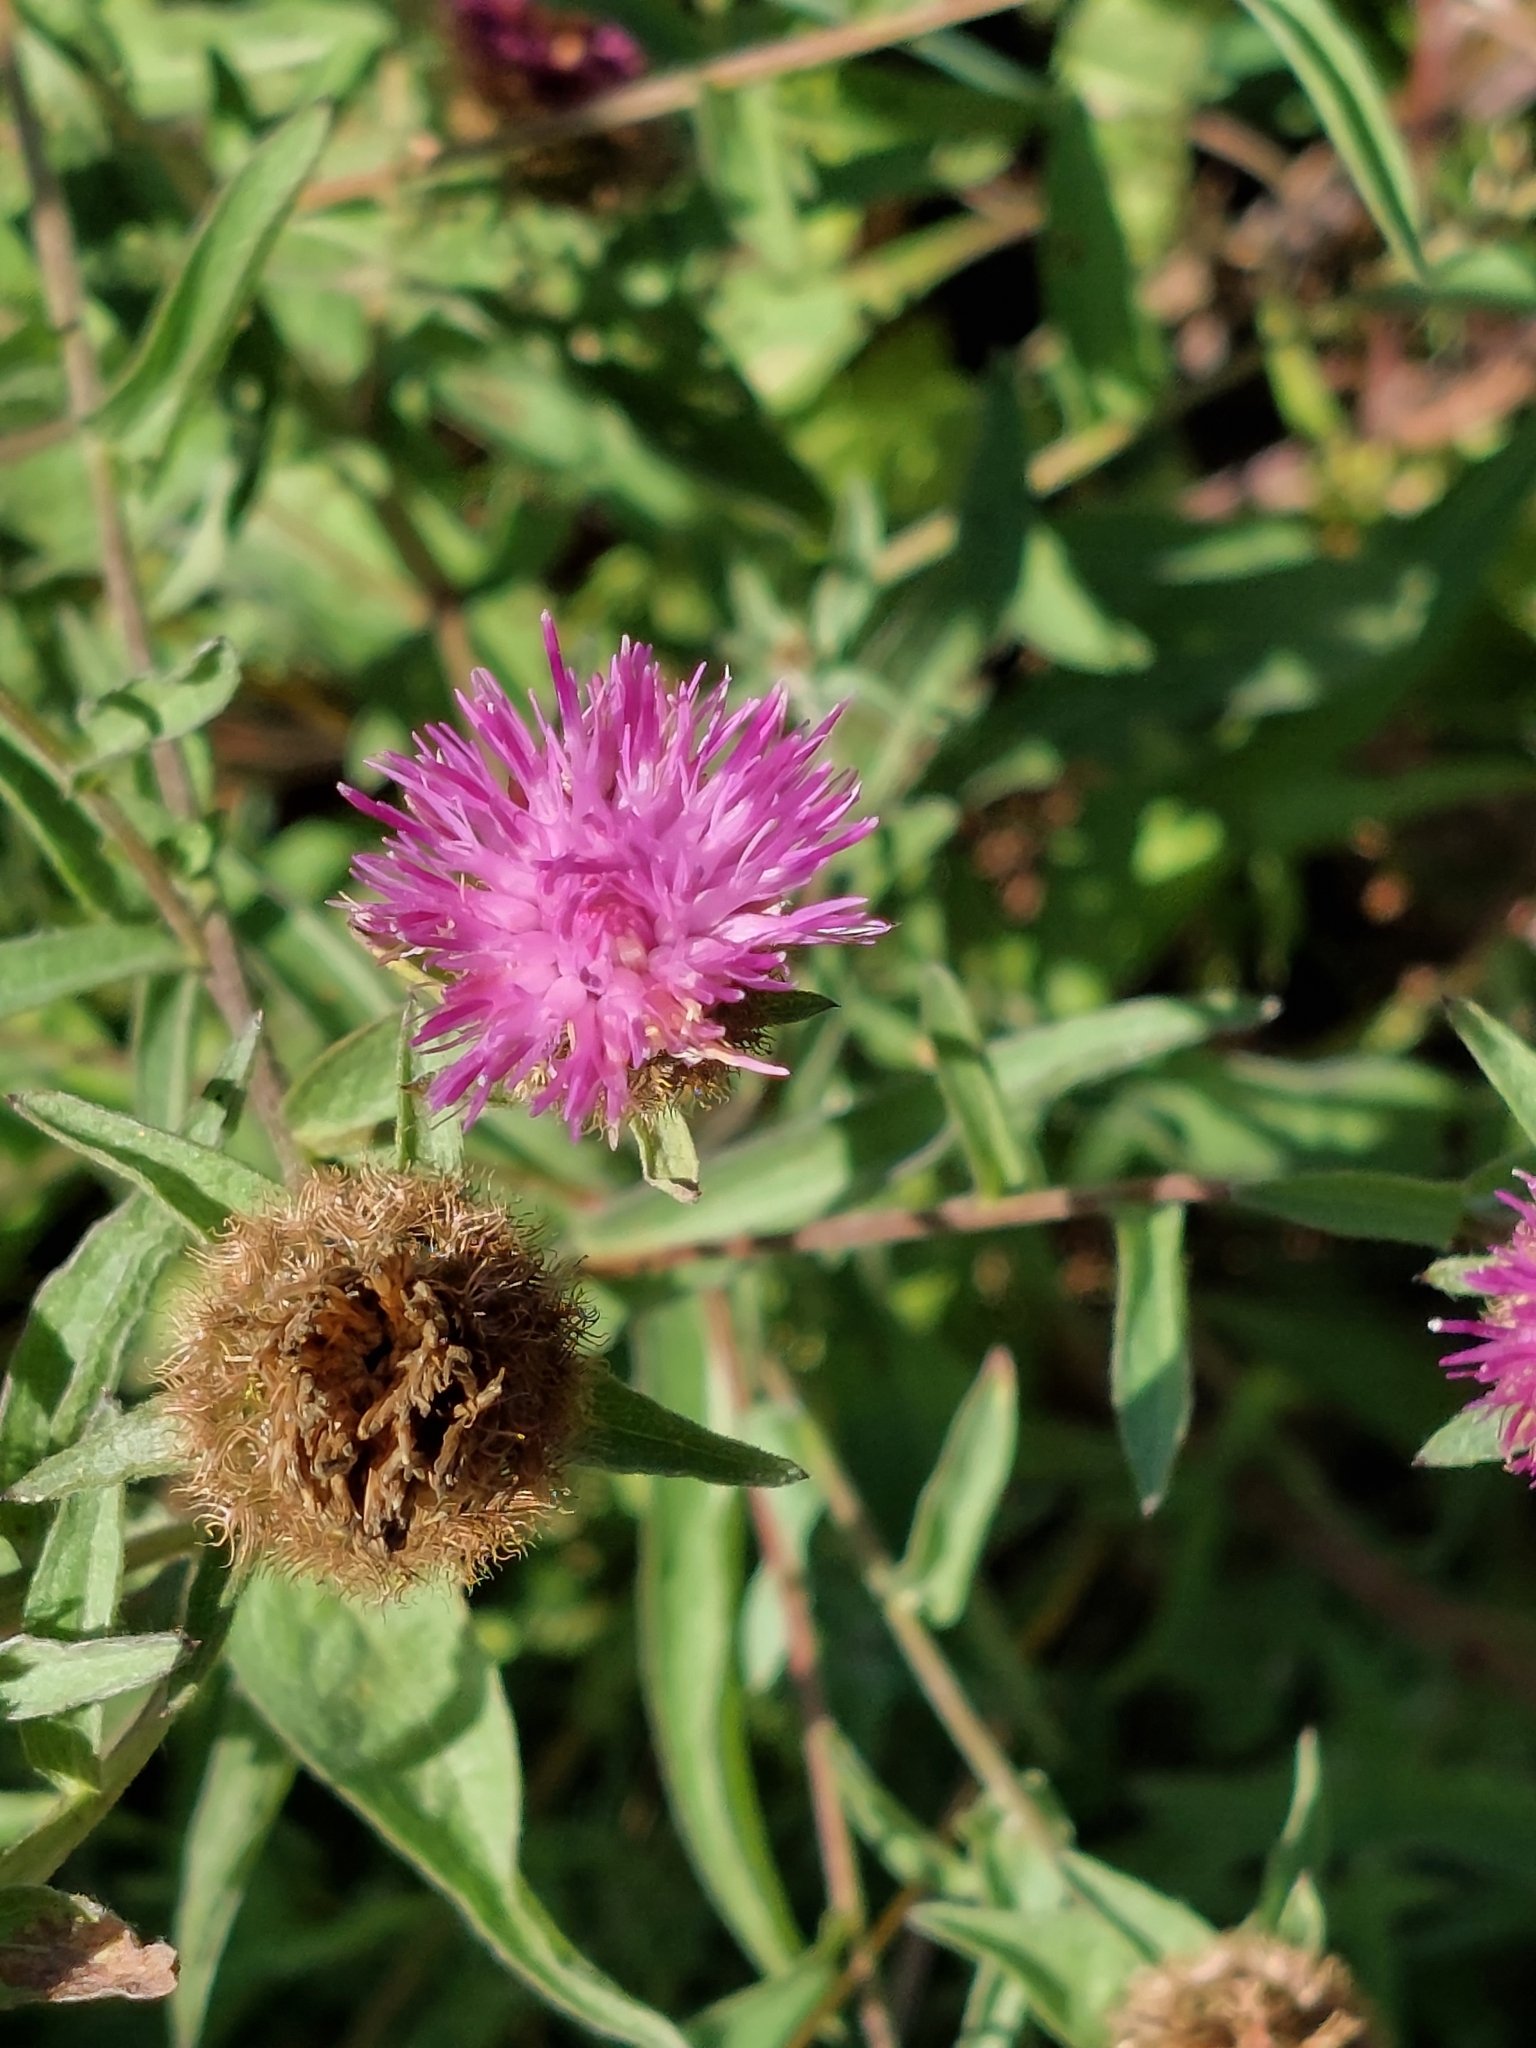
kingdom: Plantae
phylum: Tracheophyta
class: Magnoliopsida
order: Asterales
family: Asteraceae
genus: Centaurea
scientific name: Centaurea nigra
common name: Lesser knapweed
